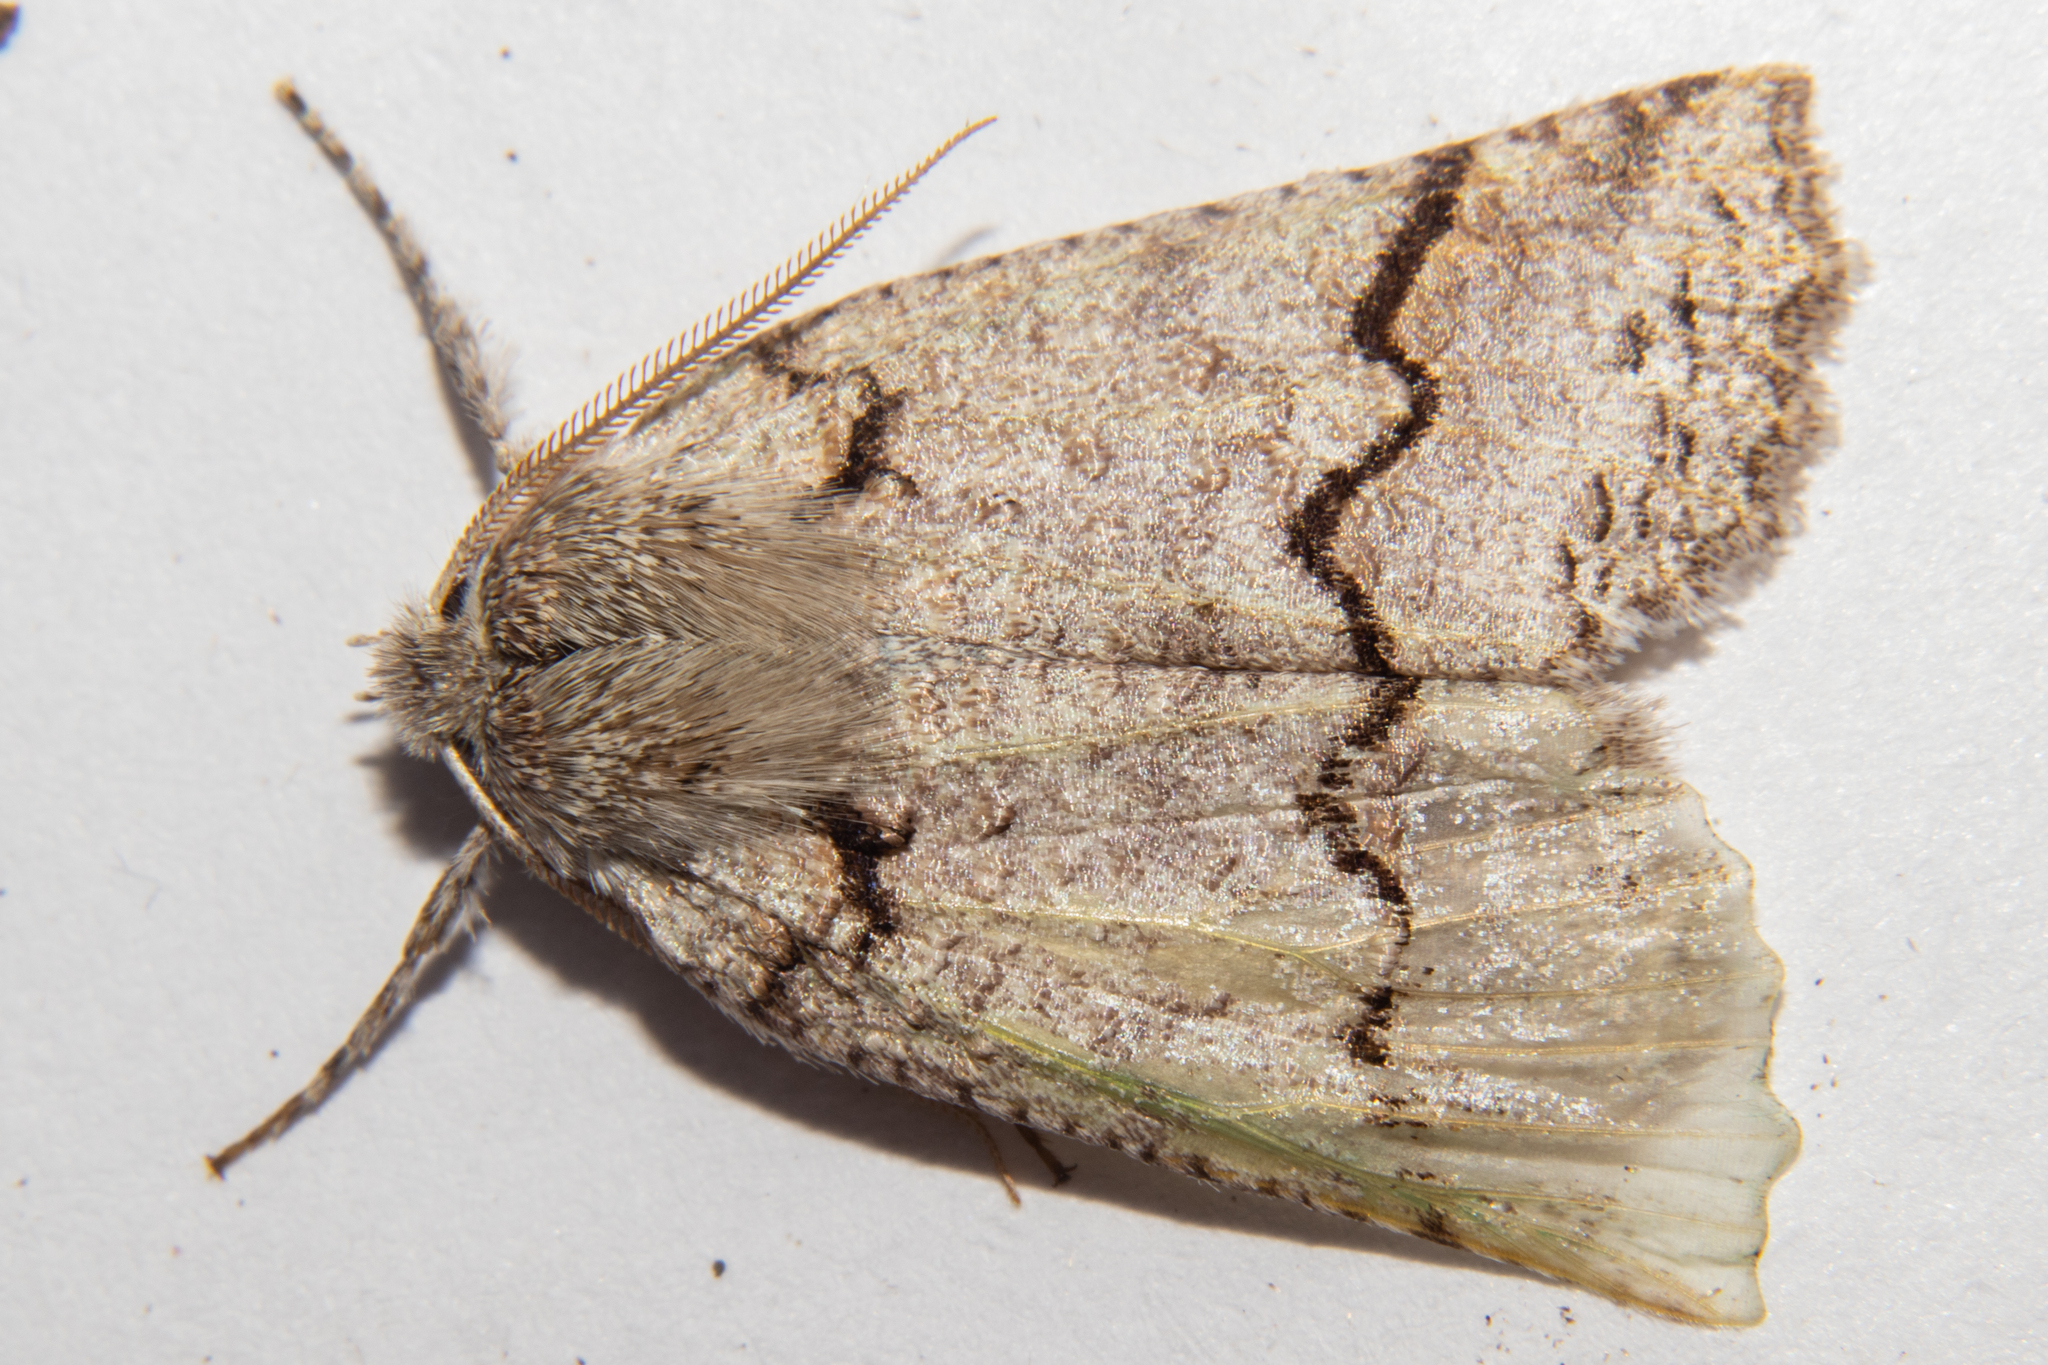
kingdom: Animalia
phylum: Arthropoda
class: Insecta
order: Lepidoptera
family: Geometridae
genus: Declana
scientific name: Declana floccosa
